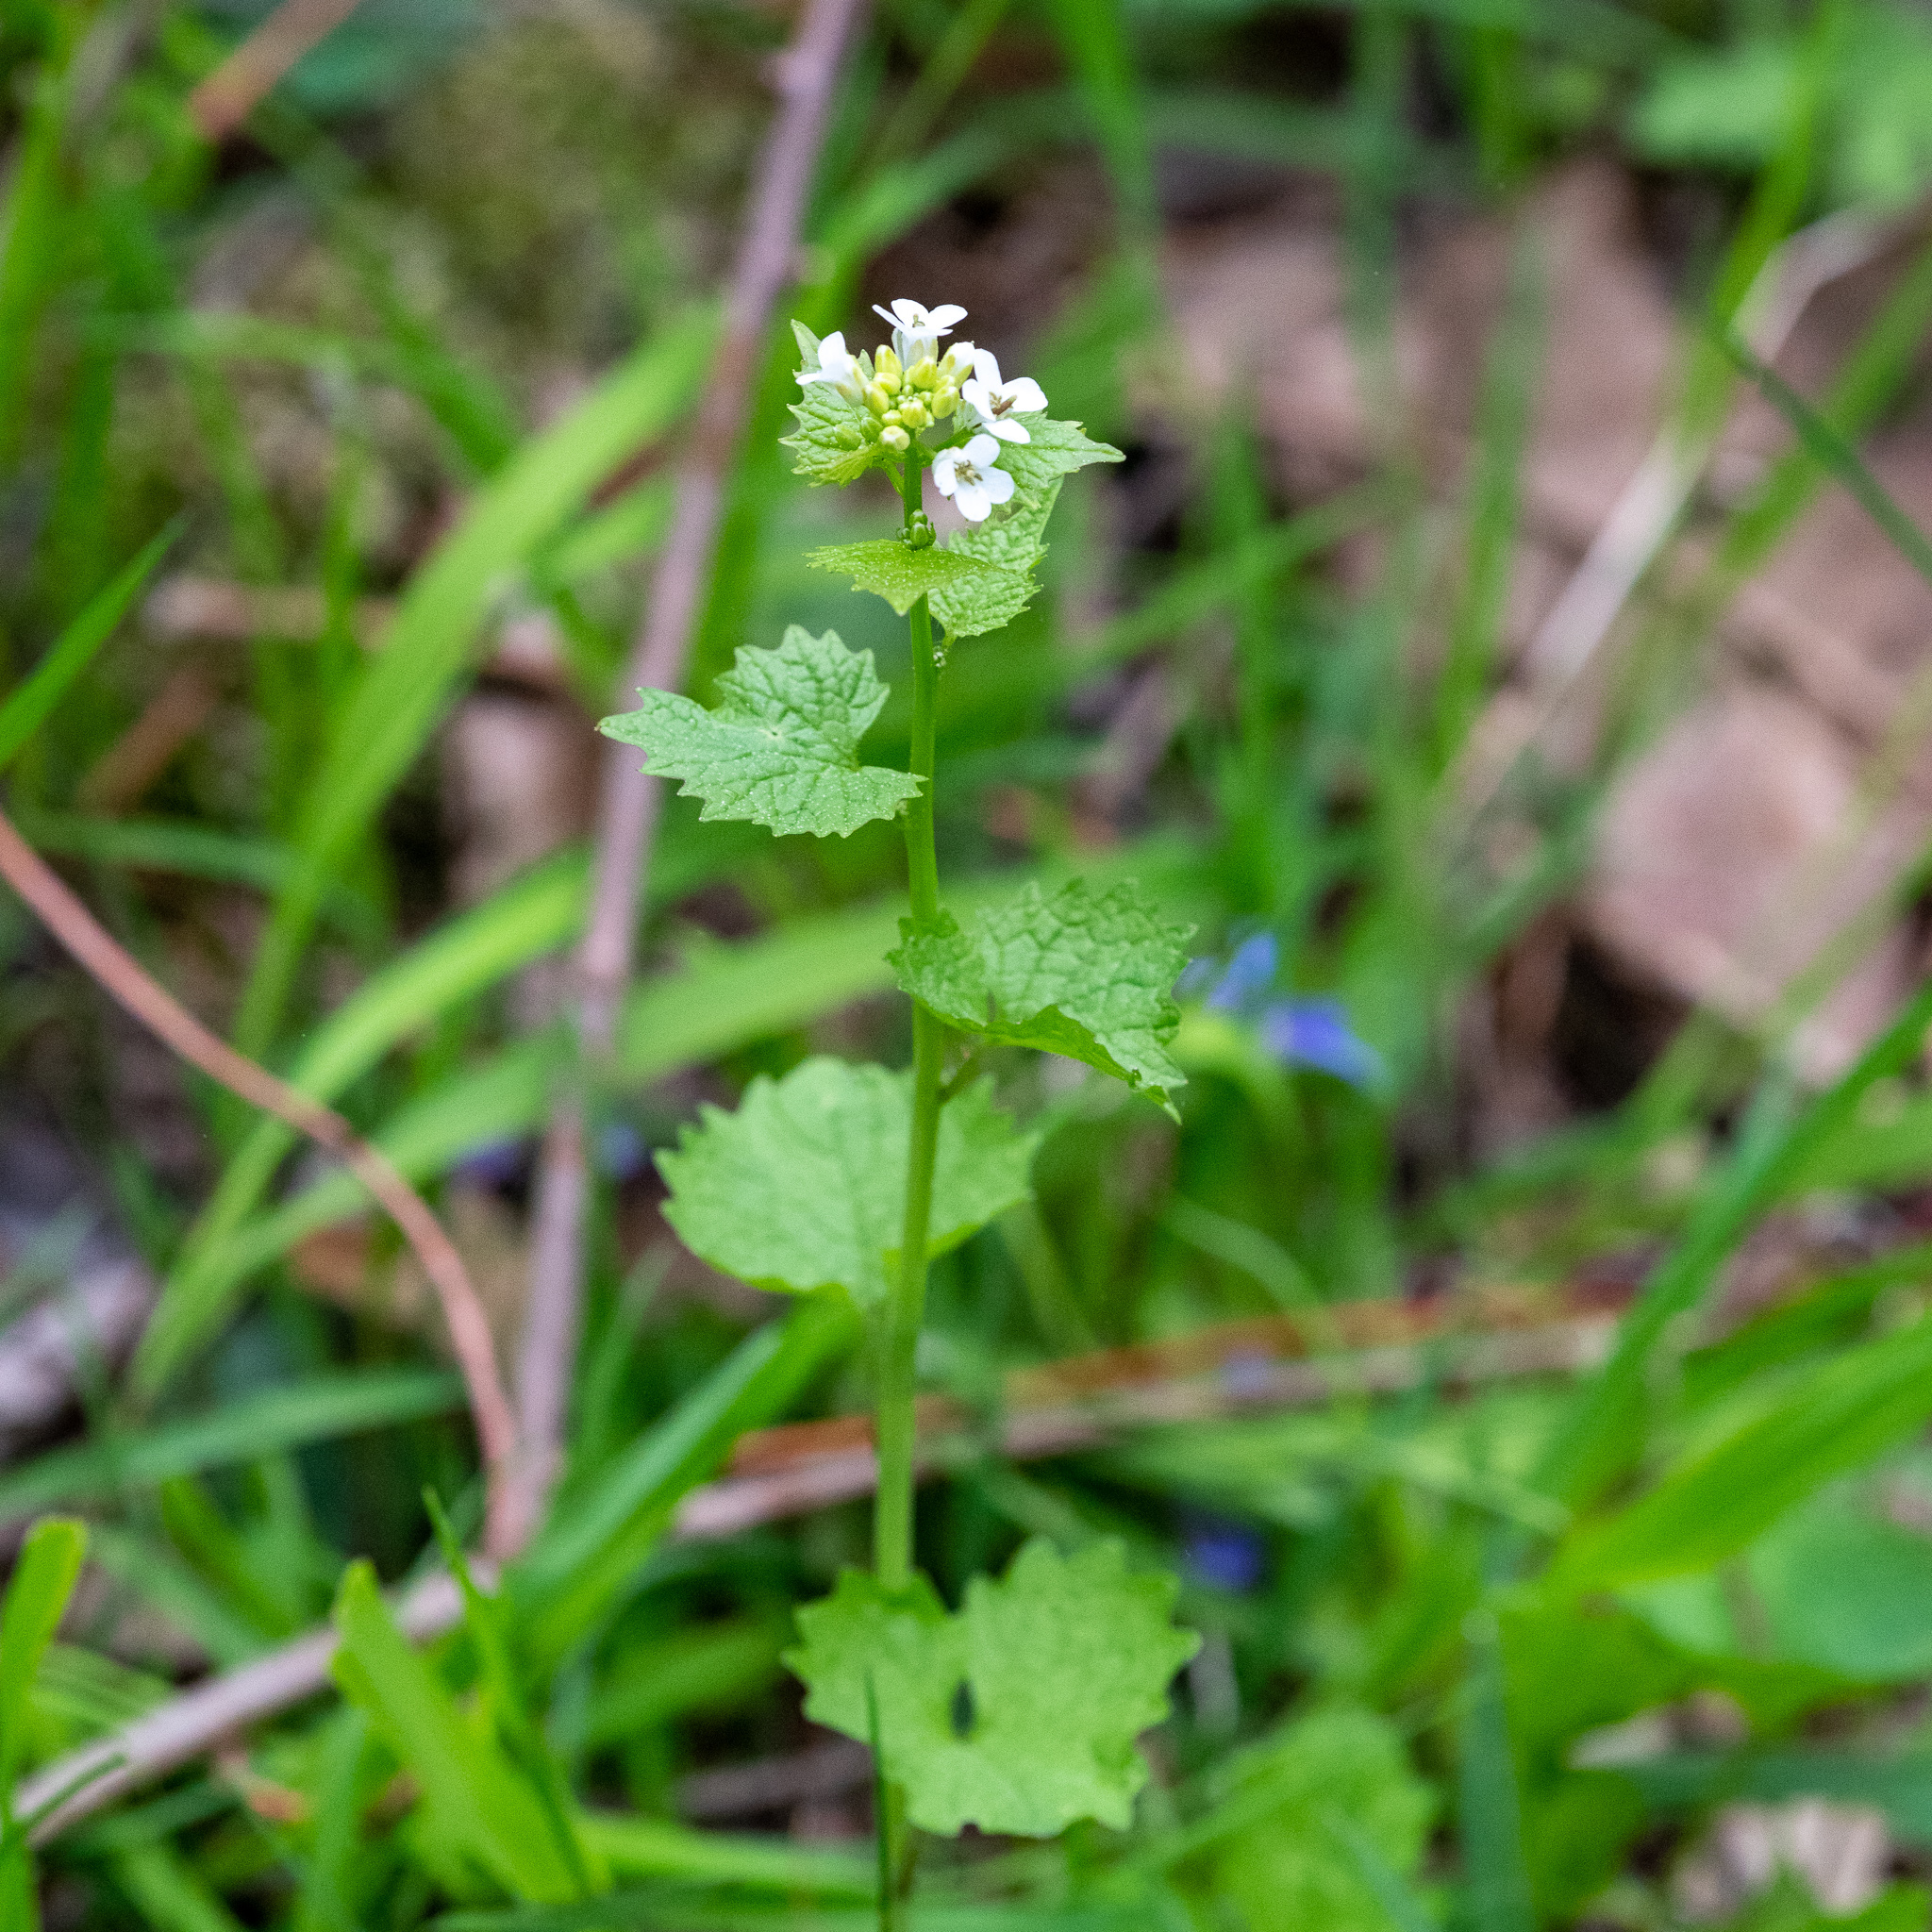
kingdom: Plantae
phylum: Tracheophyta
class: Magnoliopsida
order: Brassicales
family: Brassicaceae
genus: Alliaria
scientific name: Alliaria petiolata
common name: Garlic mustard
